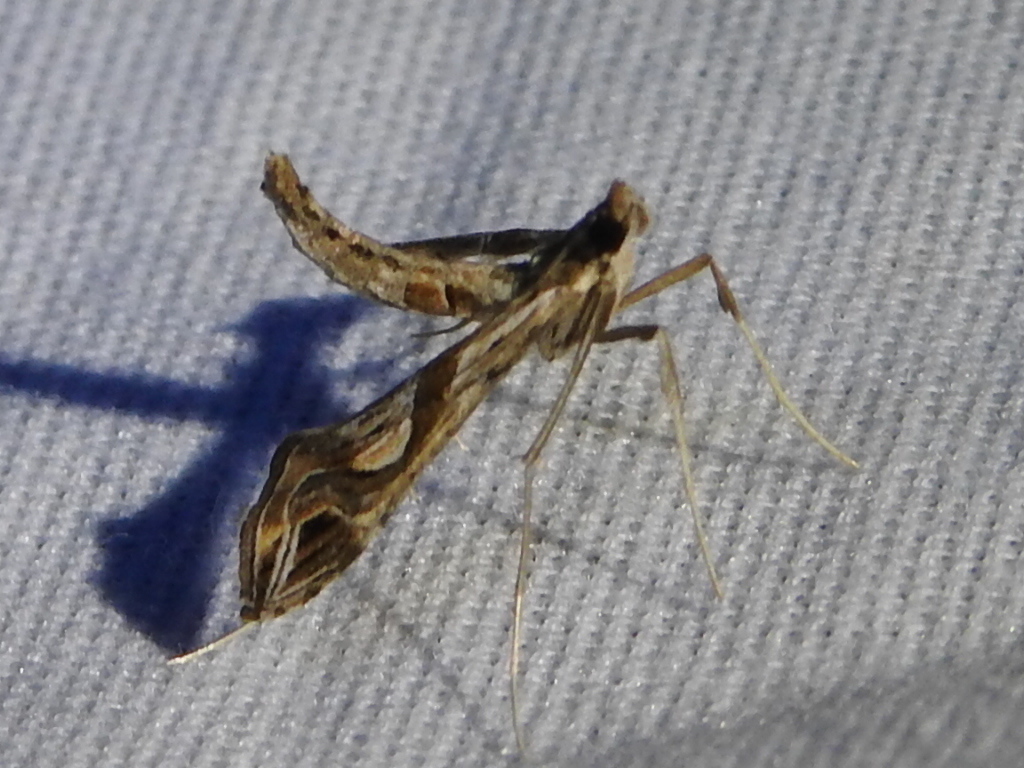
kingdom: Animalia
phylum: Arthropoda
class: Insecta
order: Lepidoptera
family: Crambidae
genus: Lineodes
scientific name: Lineodes integra
